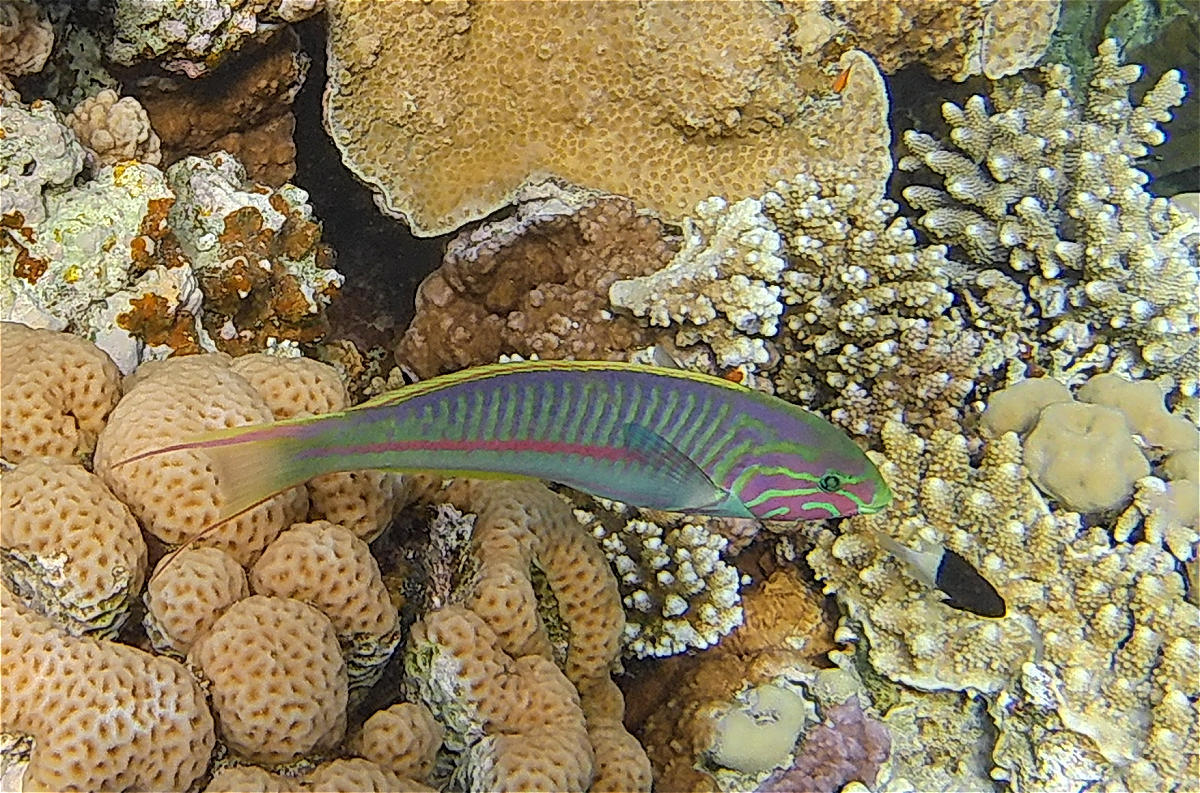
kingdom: Animalia
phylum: Chordata
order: Perciformes
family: Labridae
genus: Thalassoma
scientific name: Thalassoma rueppellii
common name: Klunzinger's wrasse
